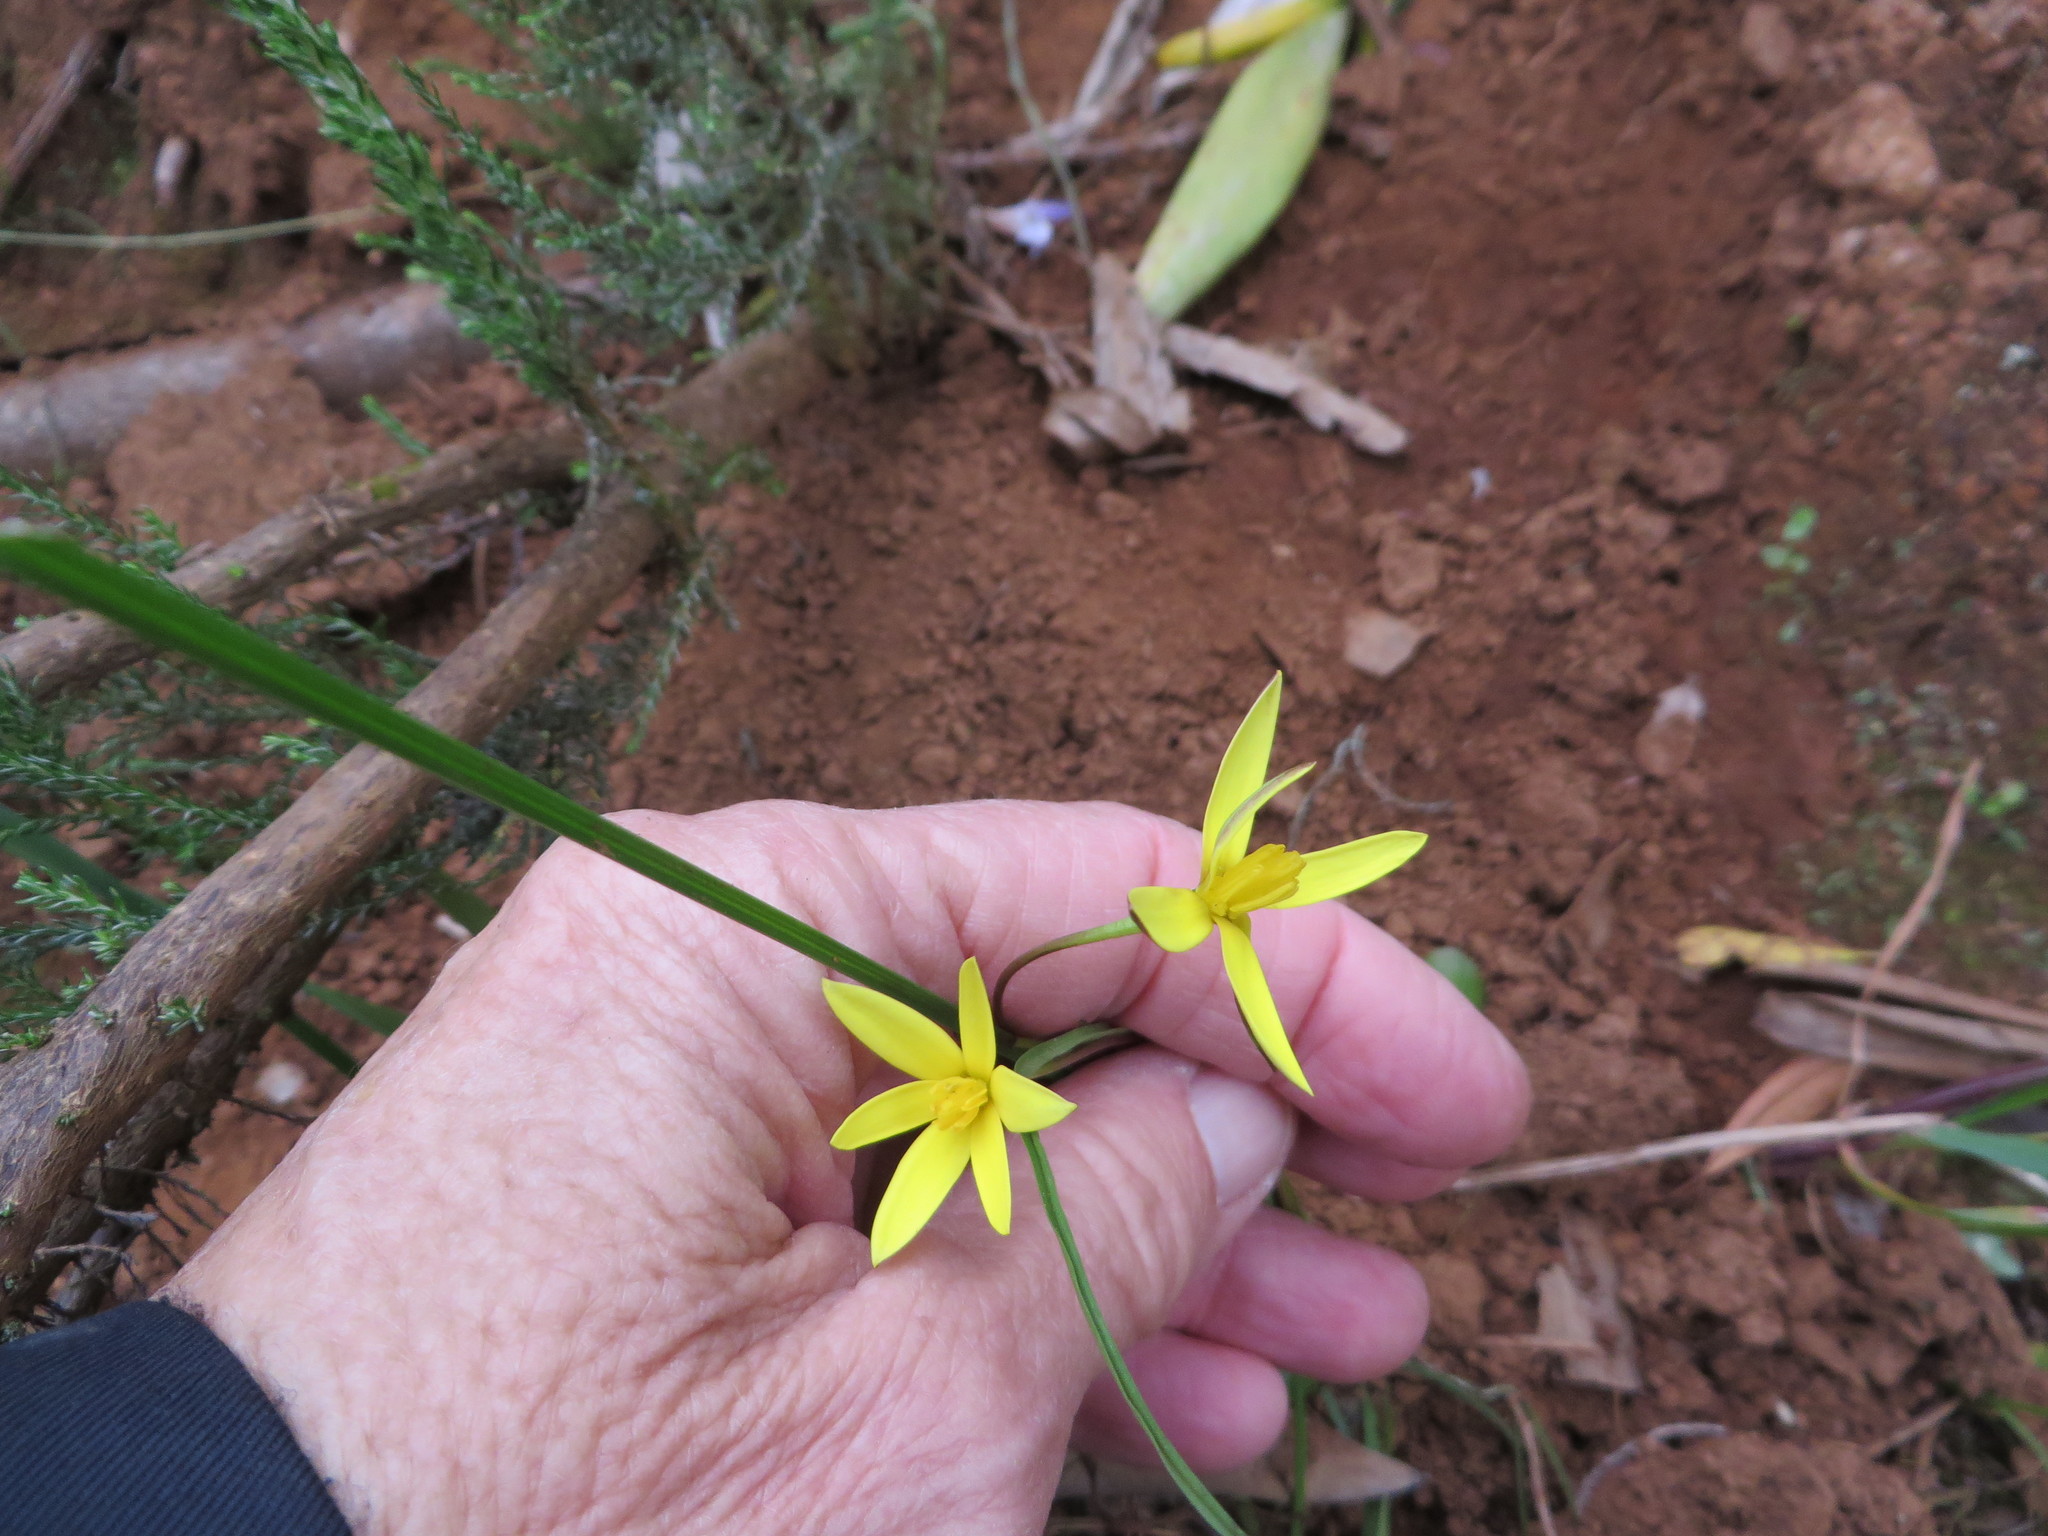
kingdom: Plantae
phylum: Tracheophyta
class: Liliopsida
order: Asparagales
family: Hypoxidaceae
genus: Pauridia
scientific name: Pauridia flaccida
